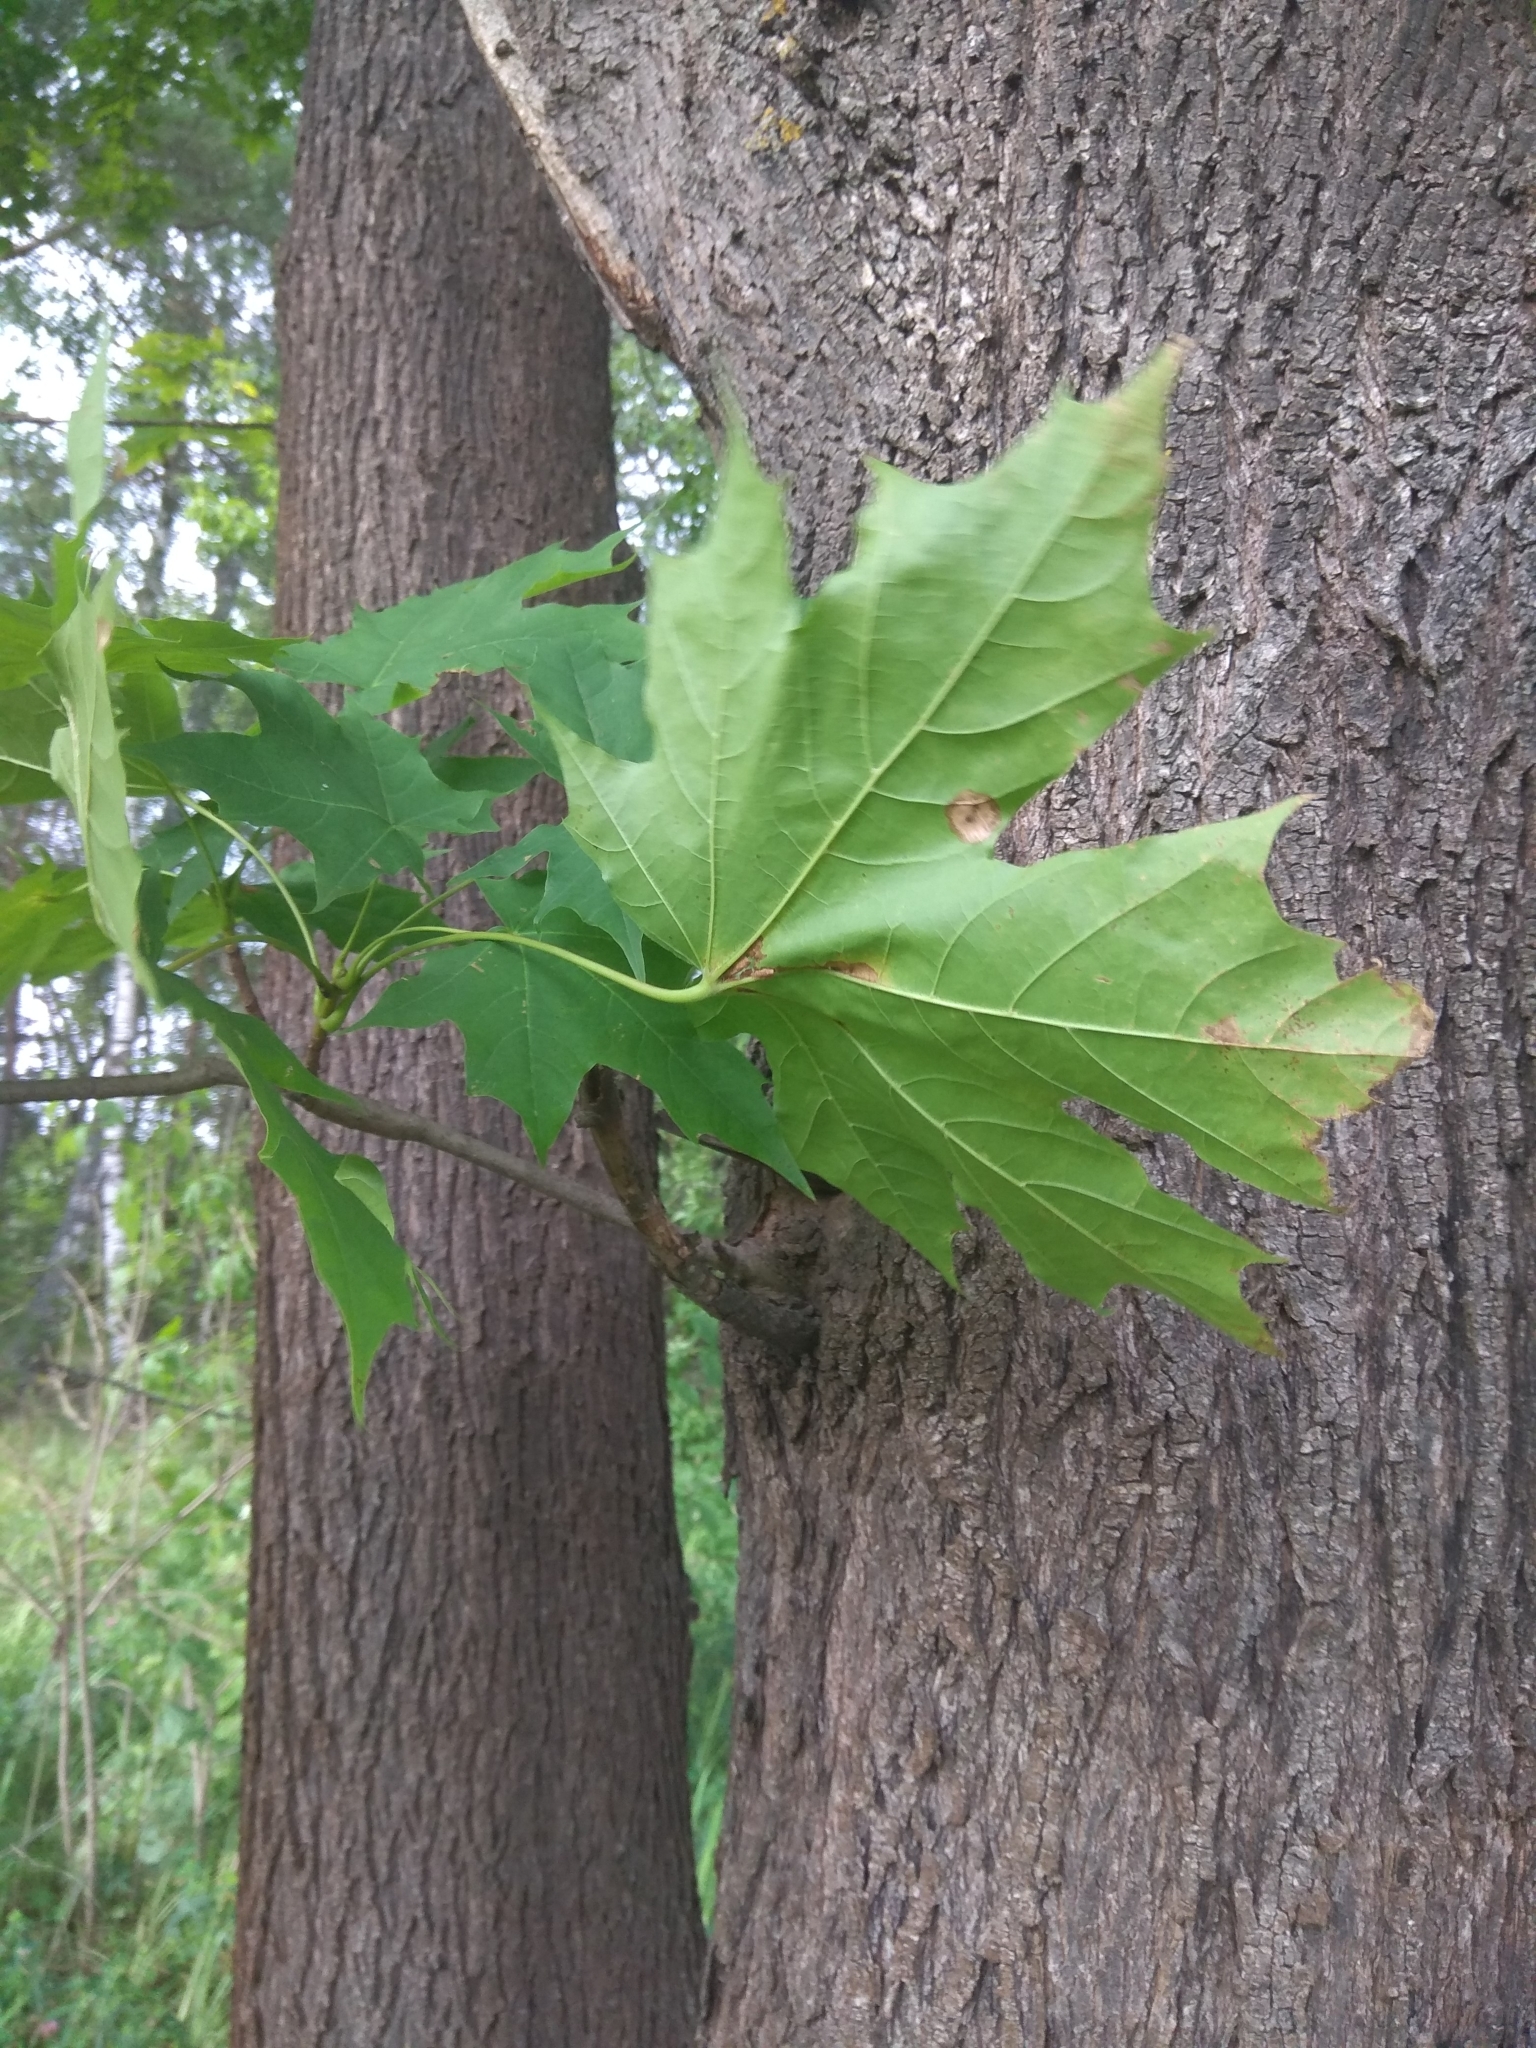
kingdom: Plantae
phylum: Tracheophyta
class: Magnoliopsida
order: Sapindales
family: Sapindaceae
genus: Acer
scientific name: Acer platanoides
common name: Norway maple
